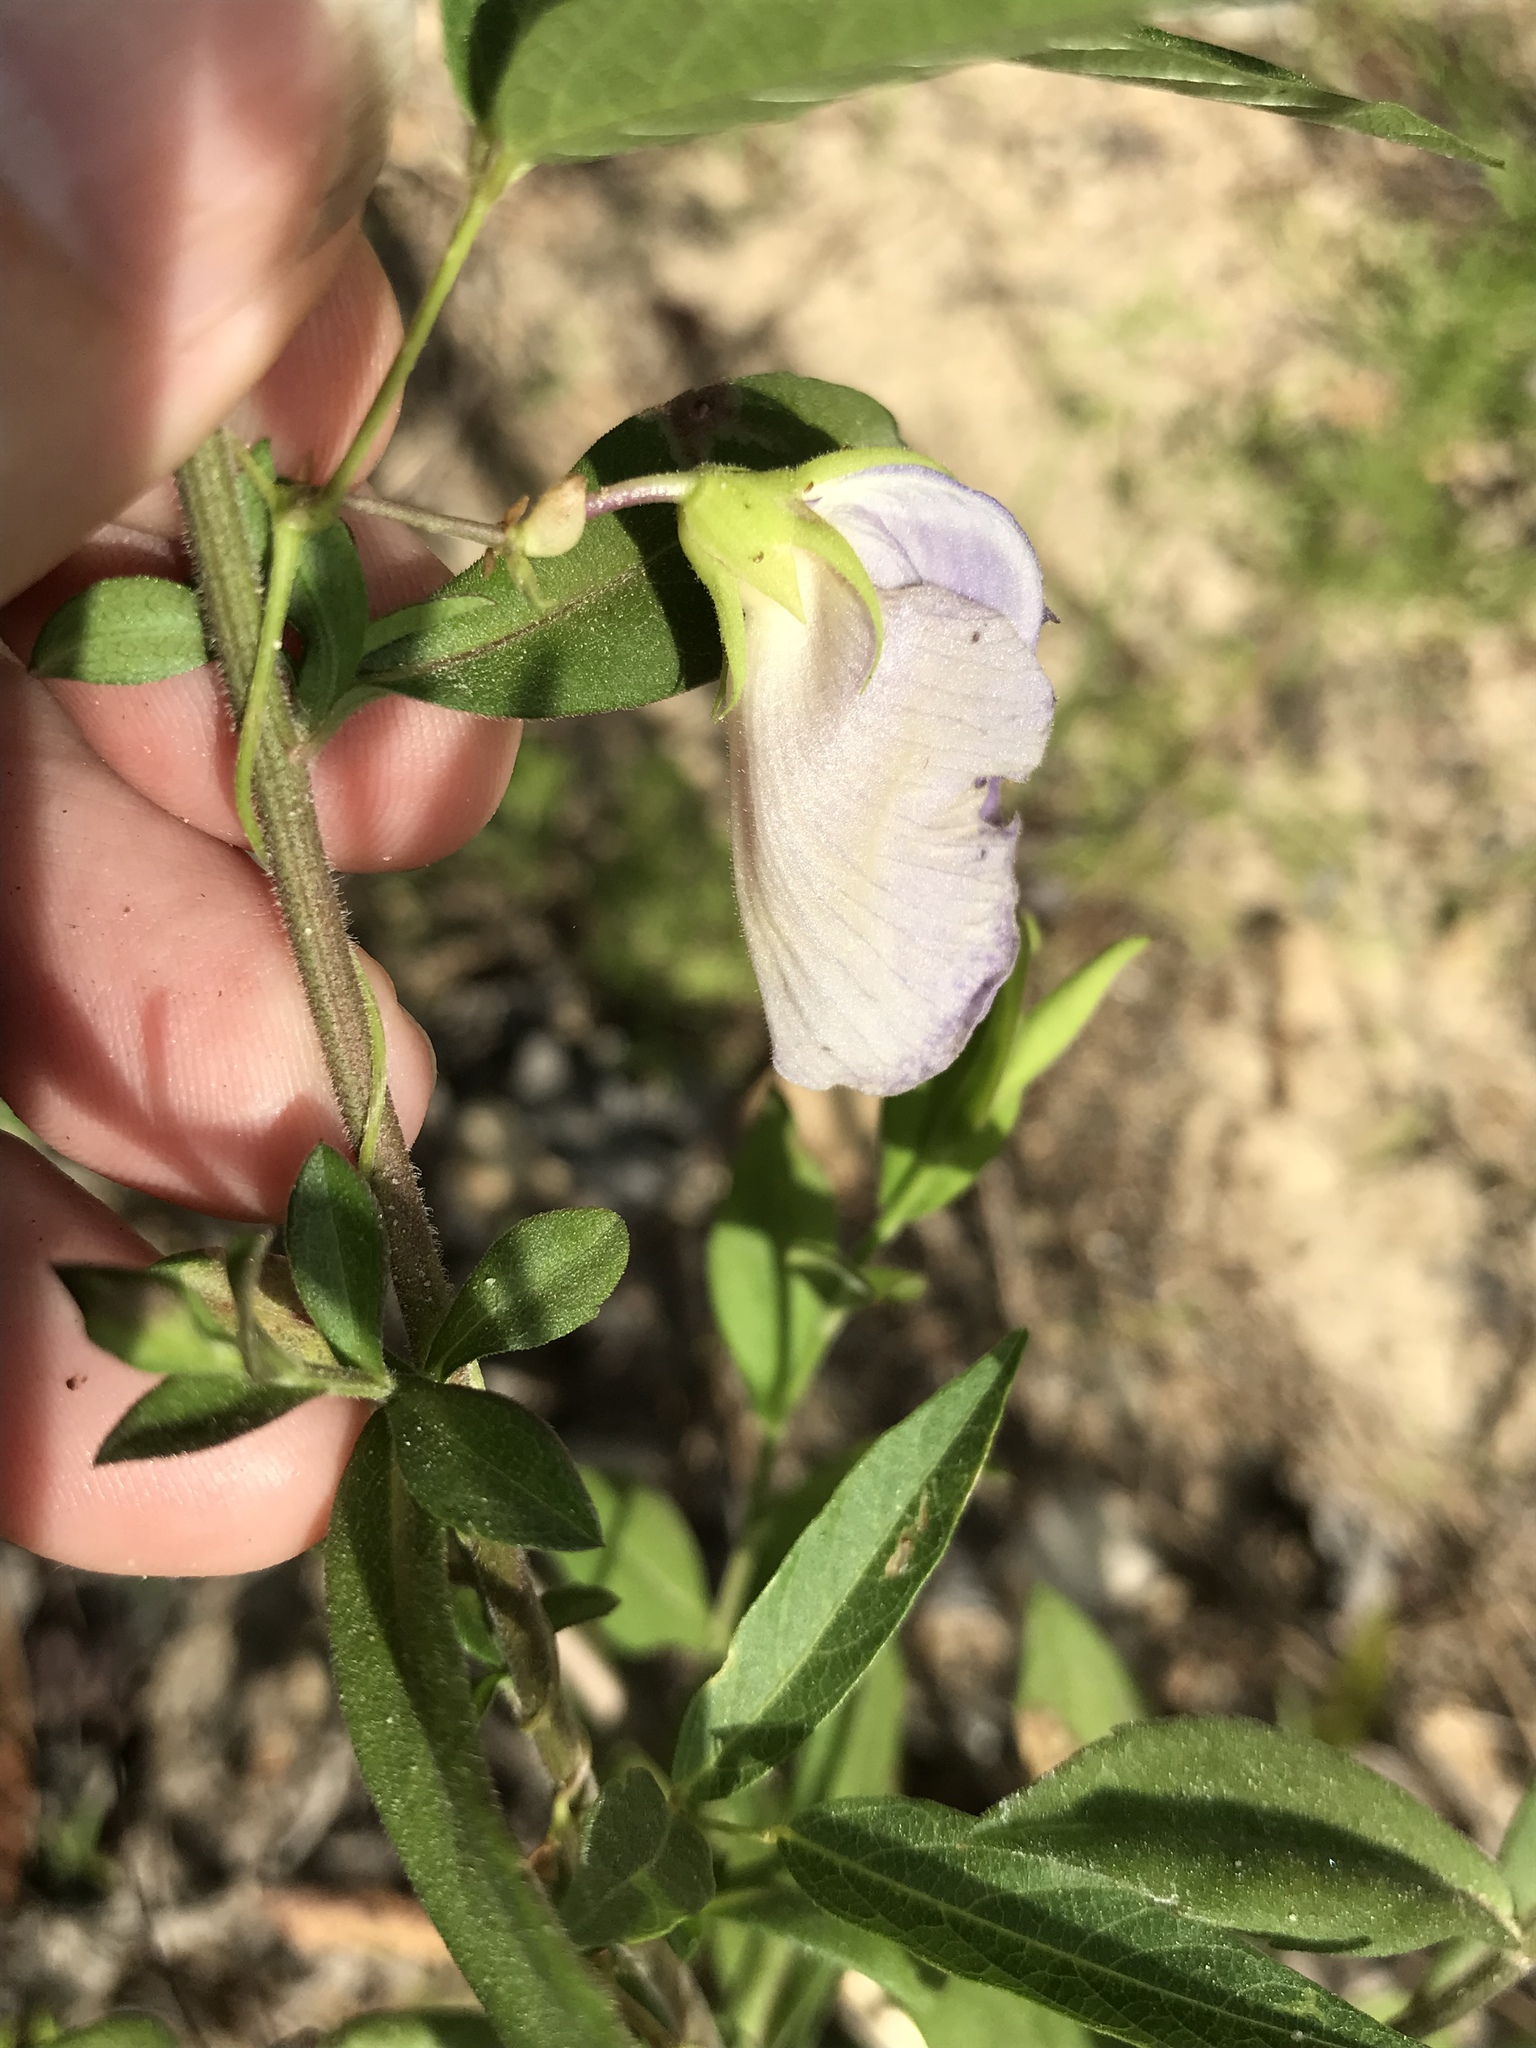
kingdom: Plantae
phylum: Tracheophyta
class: Magnoliopsida
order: Fabales
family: Fabaceae
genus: Centrosema
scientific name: Centrosema virginianum
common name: Butterfly-pea
